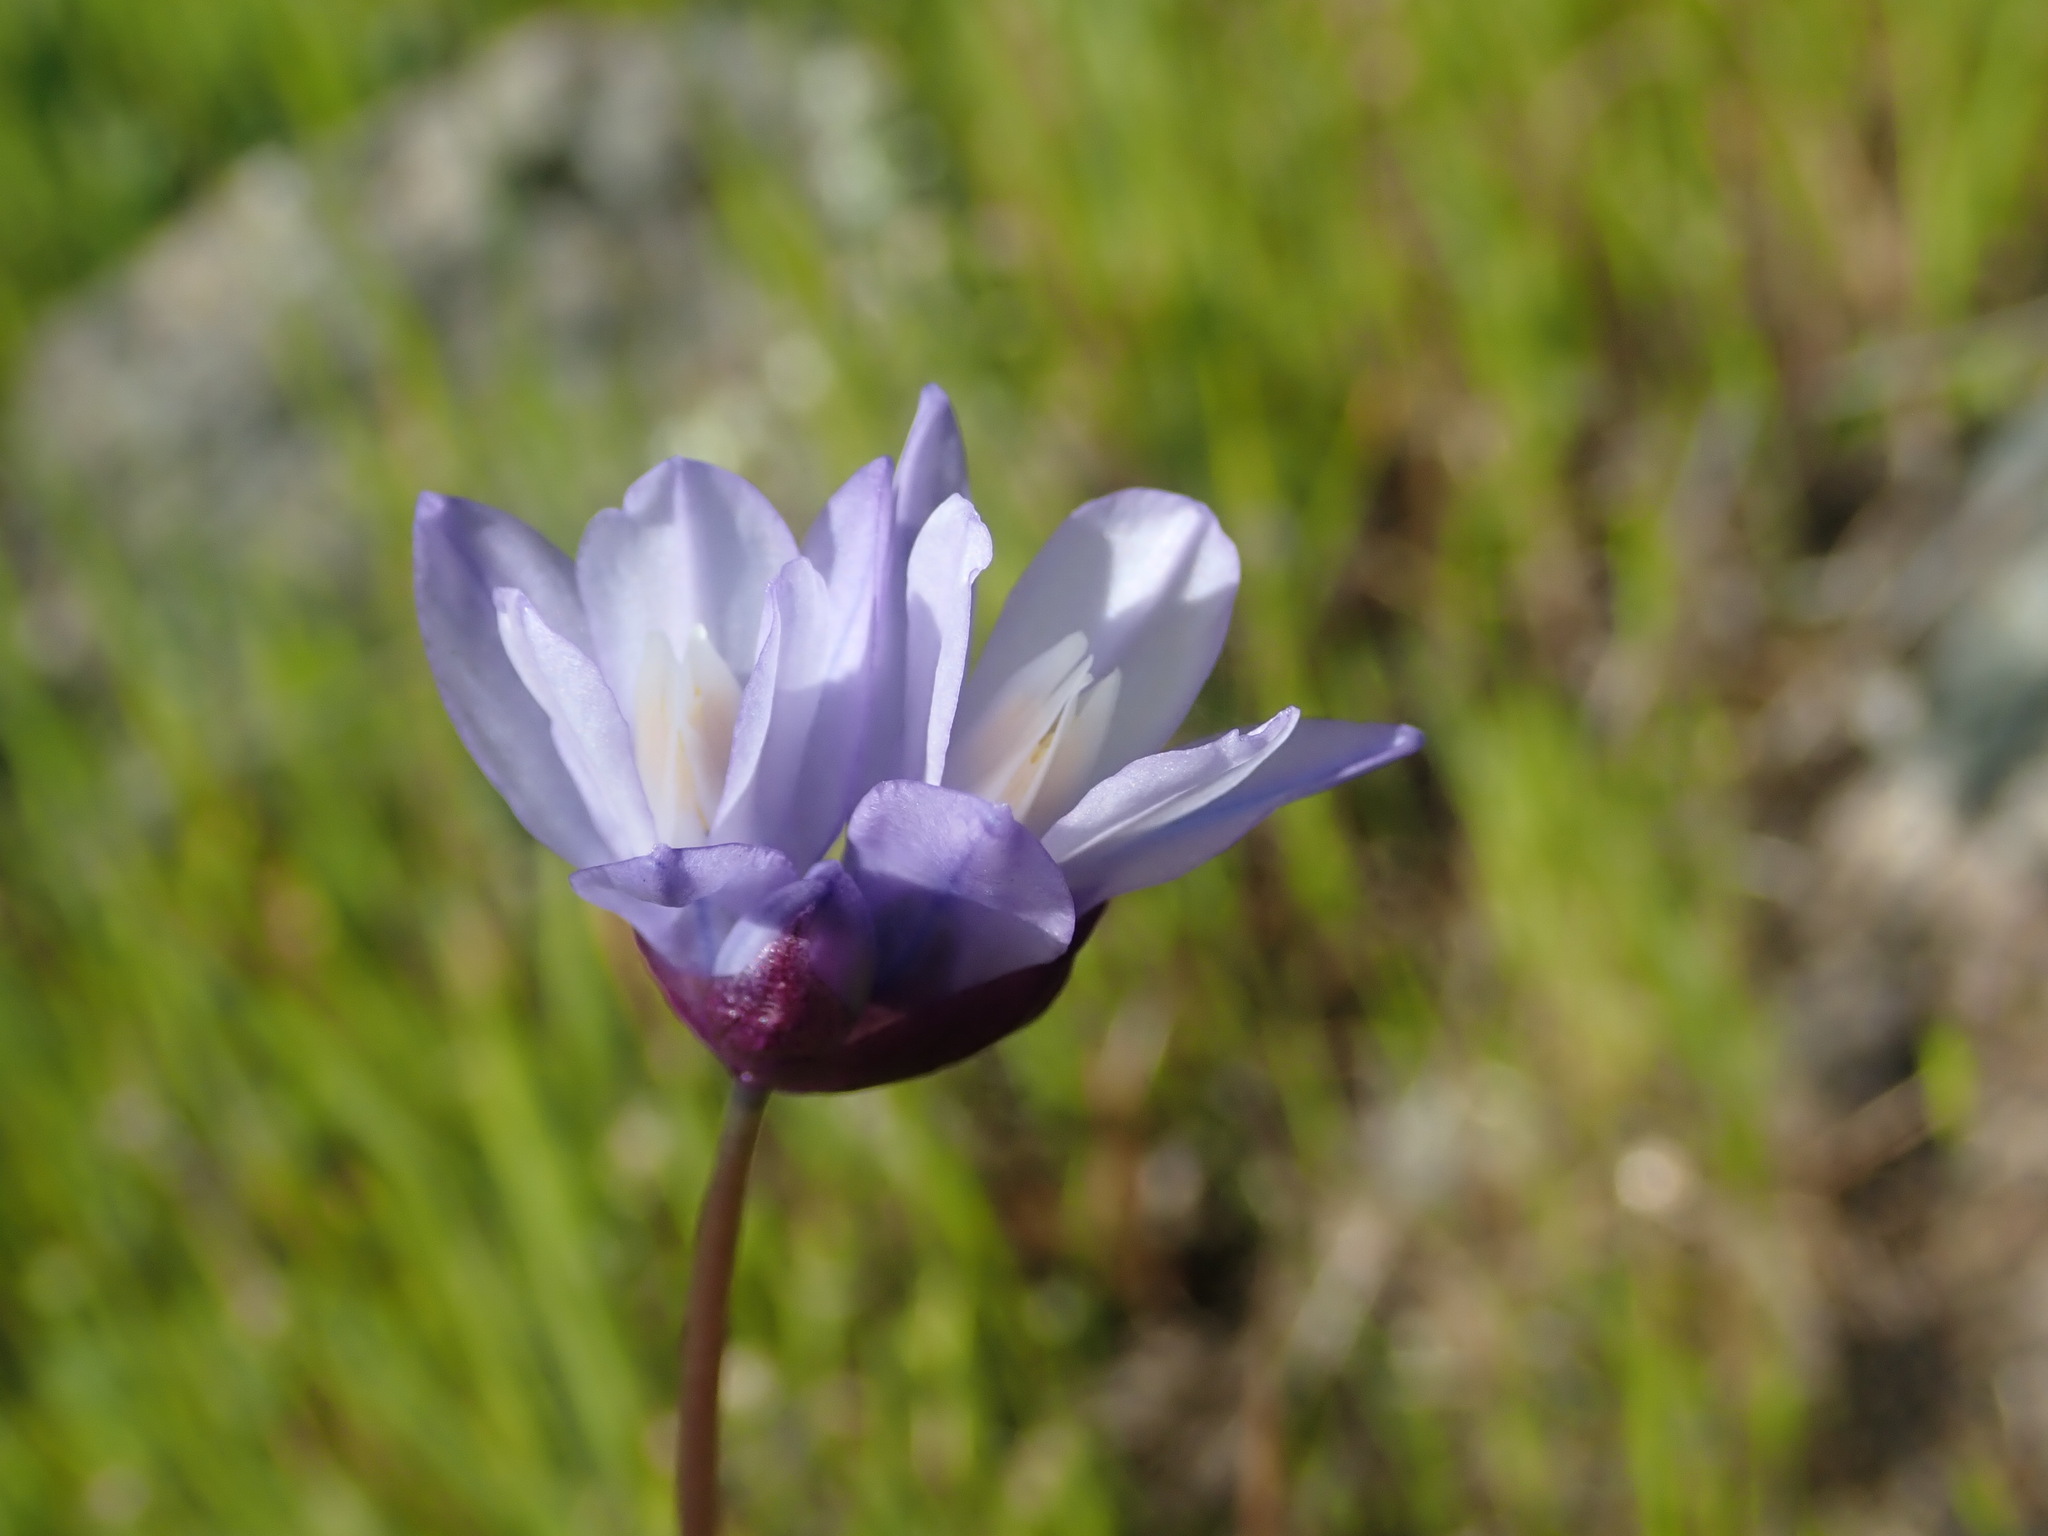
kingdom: Plantae
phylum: Tracheophyta
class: Liliopsida
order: Asparagales
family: Asparagaceae
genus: Dipterostemon
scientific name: Dipterostemon capitatus
